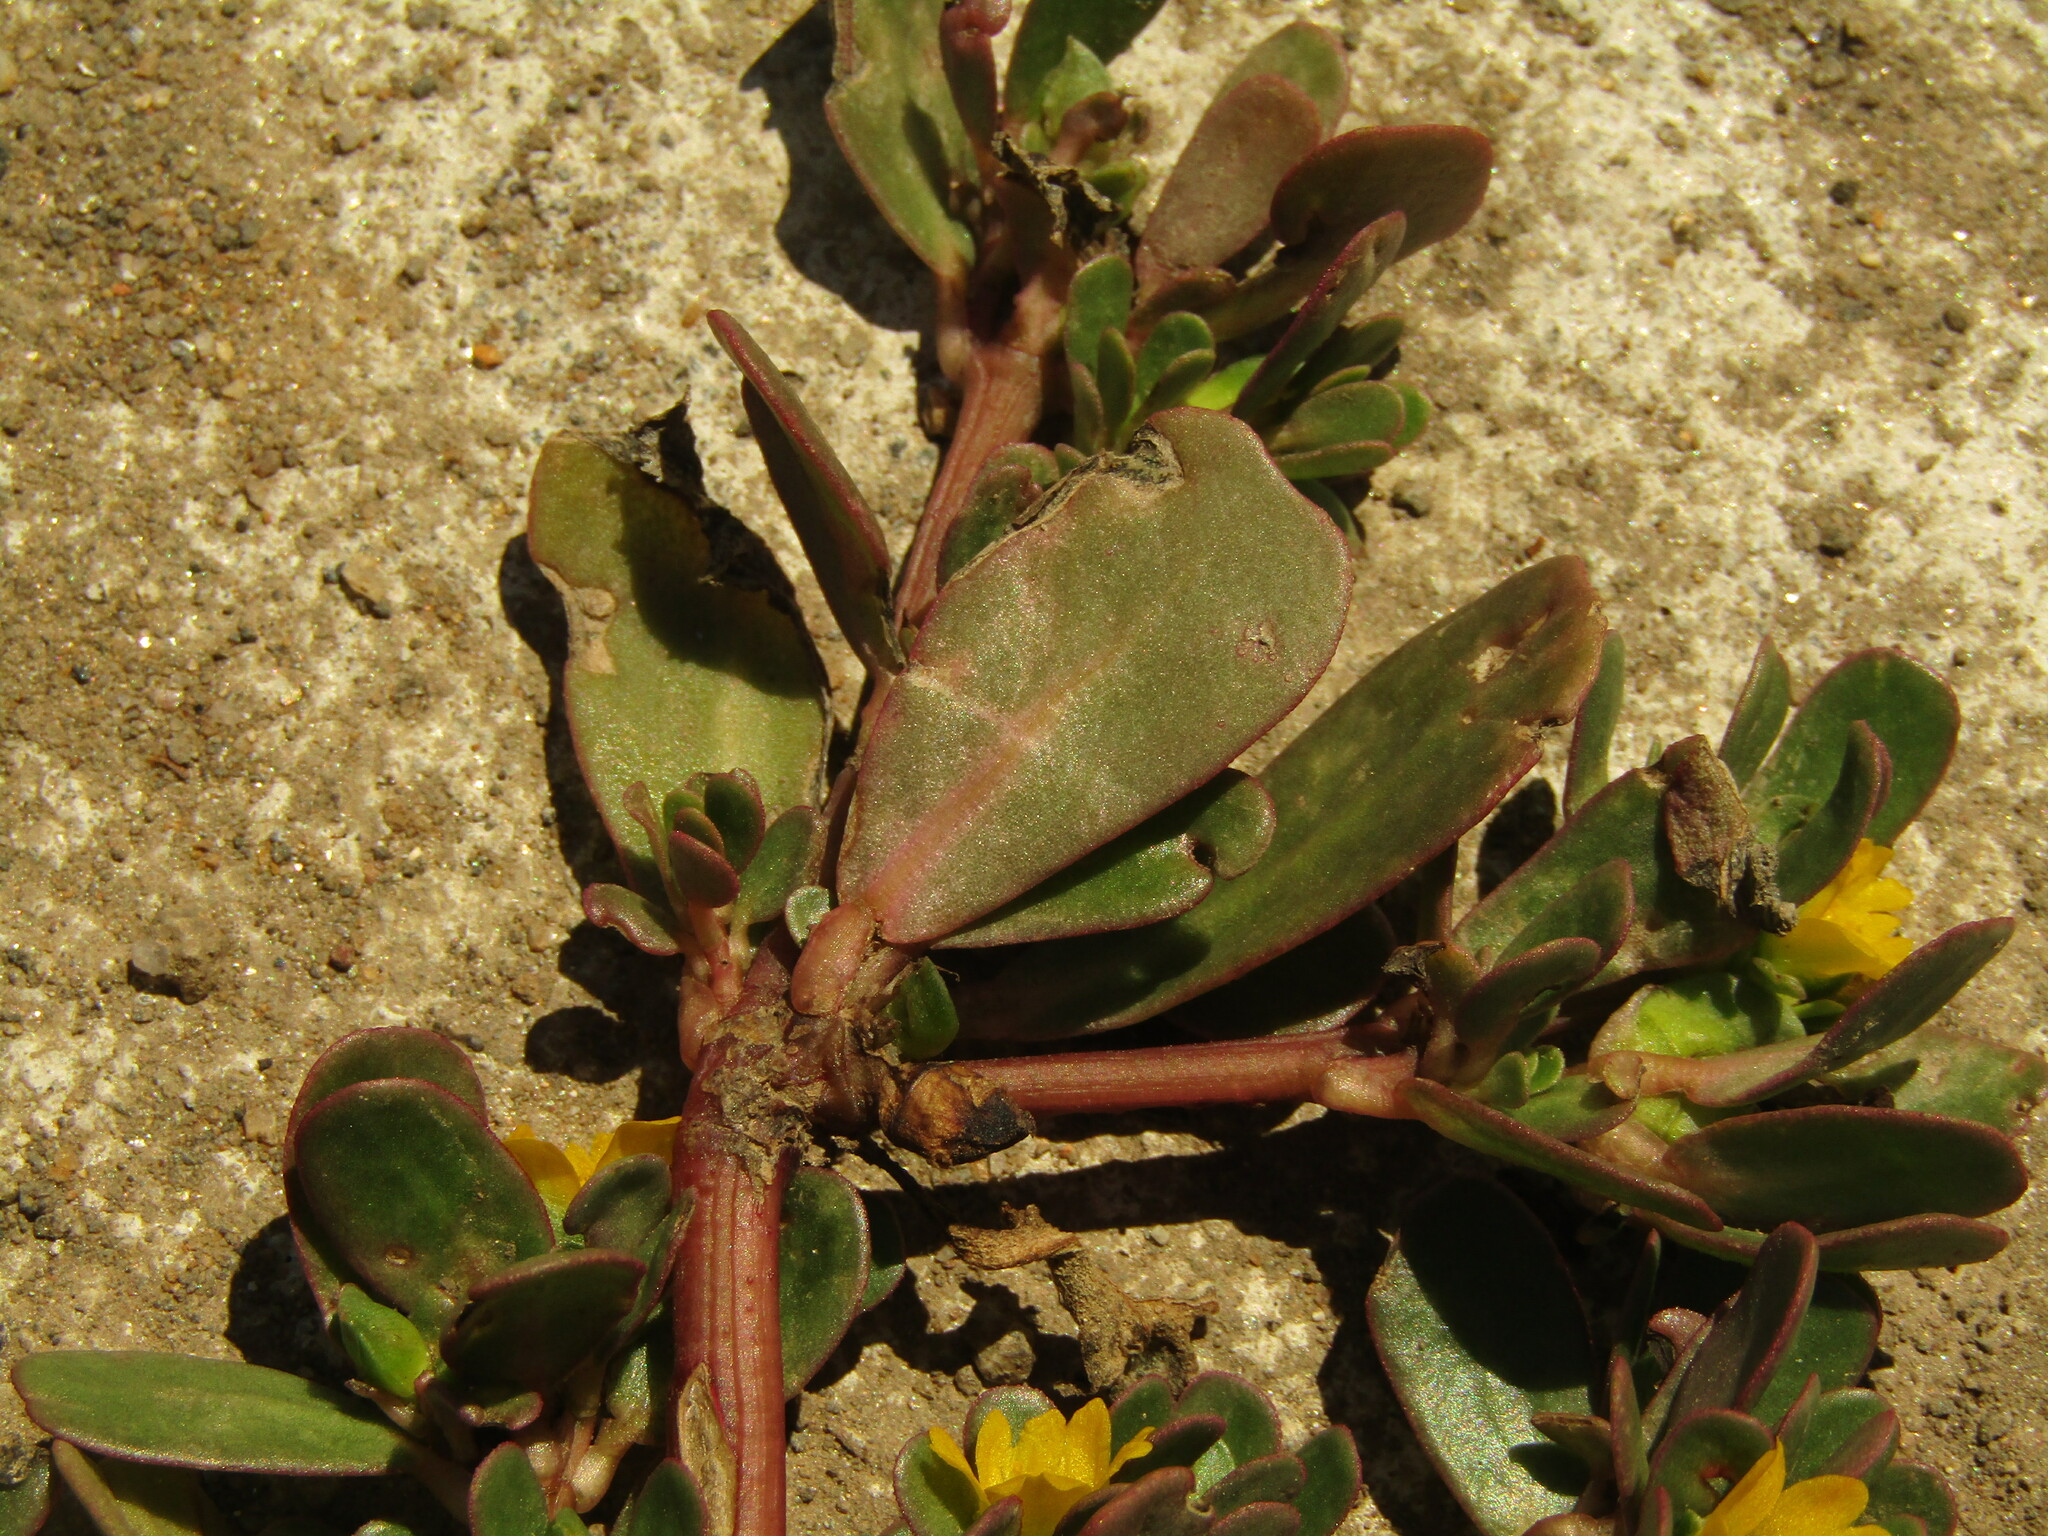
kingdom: Plantae
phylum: Tracheophyta
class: Magnoliopsida
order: Caryophyllales
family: Portulacaceae
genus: Portulaca
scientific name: Portulaca oleracea
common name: Common purslane
